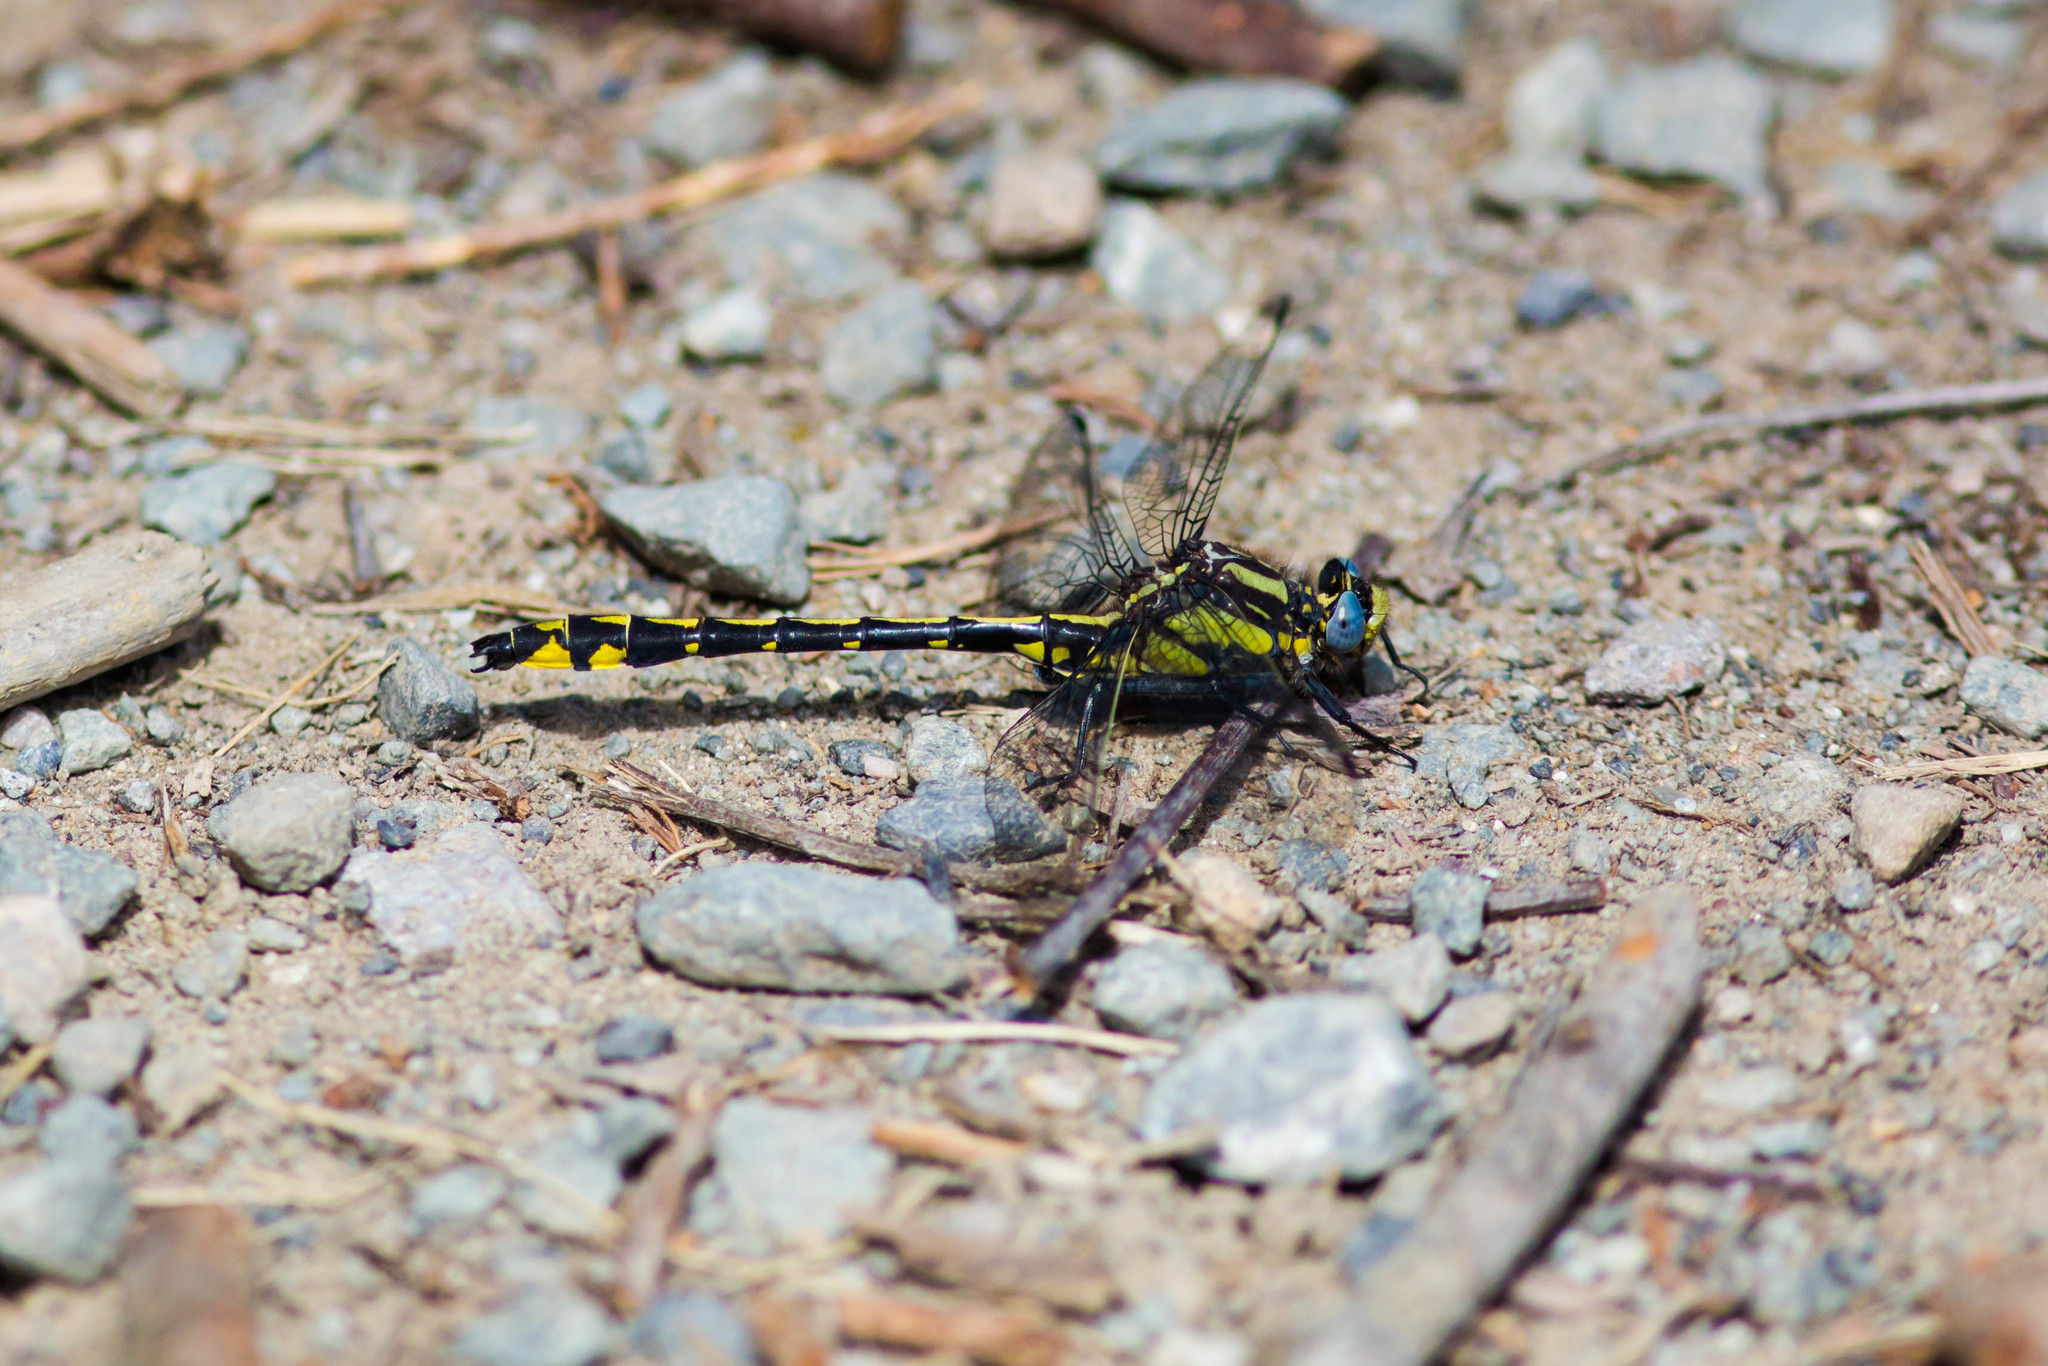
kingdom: Animalia
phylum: Arthropoda
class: Insecta
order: Odonata
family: Gomphidae
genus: Phanogomphus
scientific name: Phanogomphus kurilis
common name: Pacific clubtail
